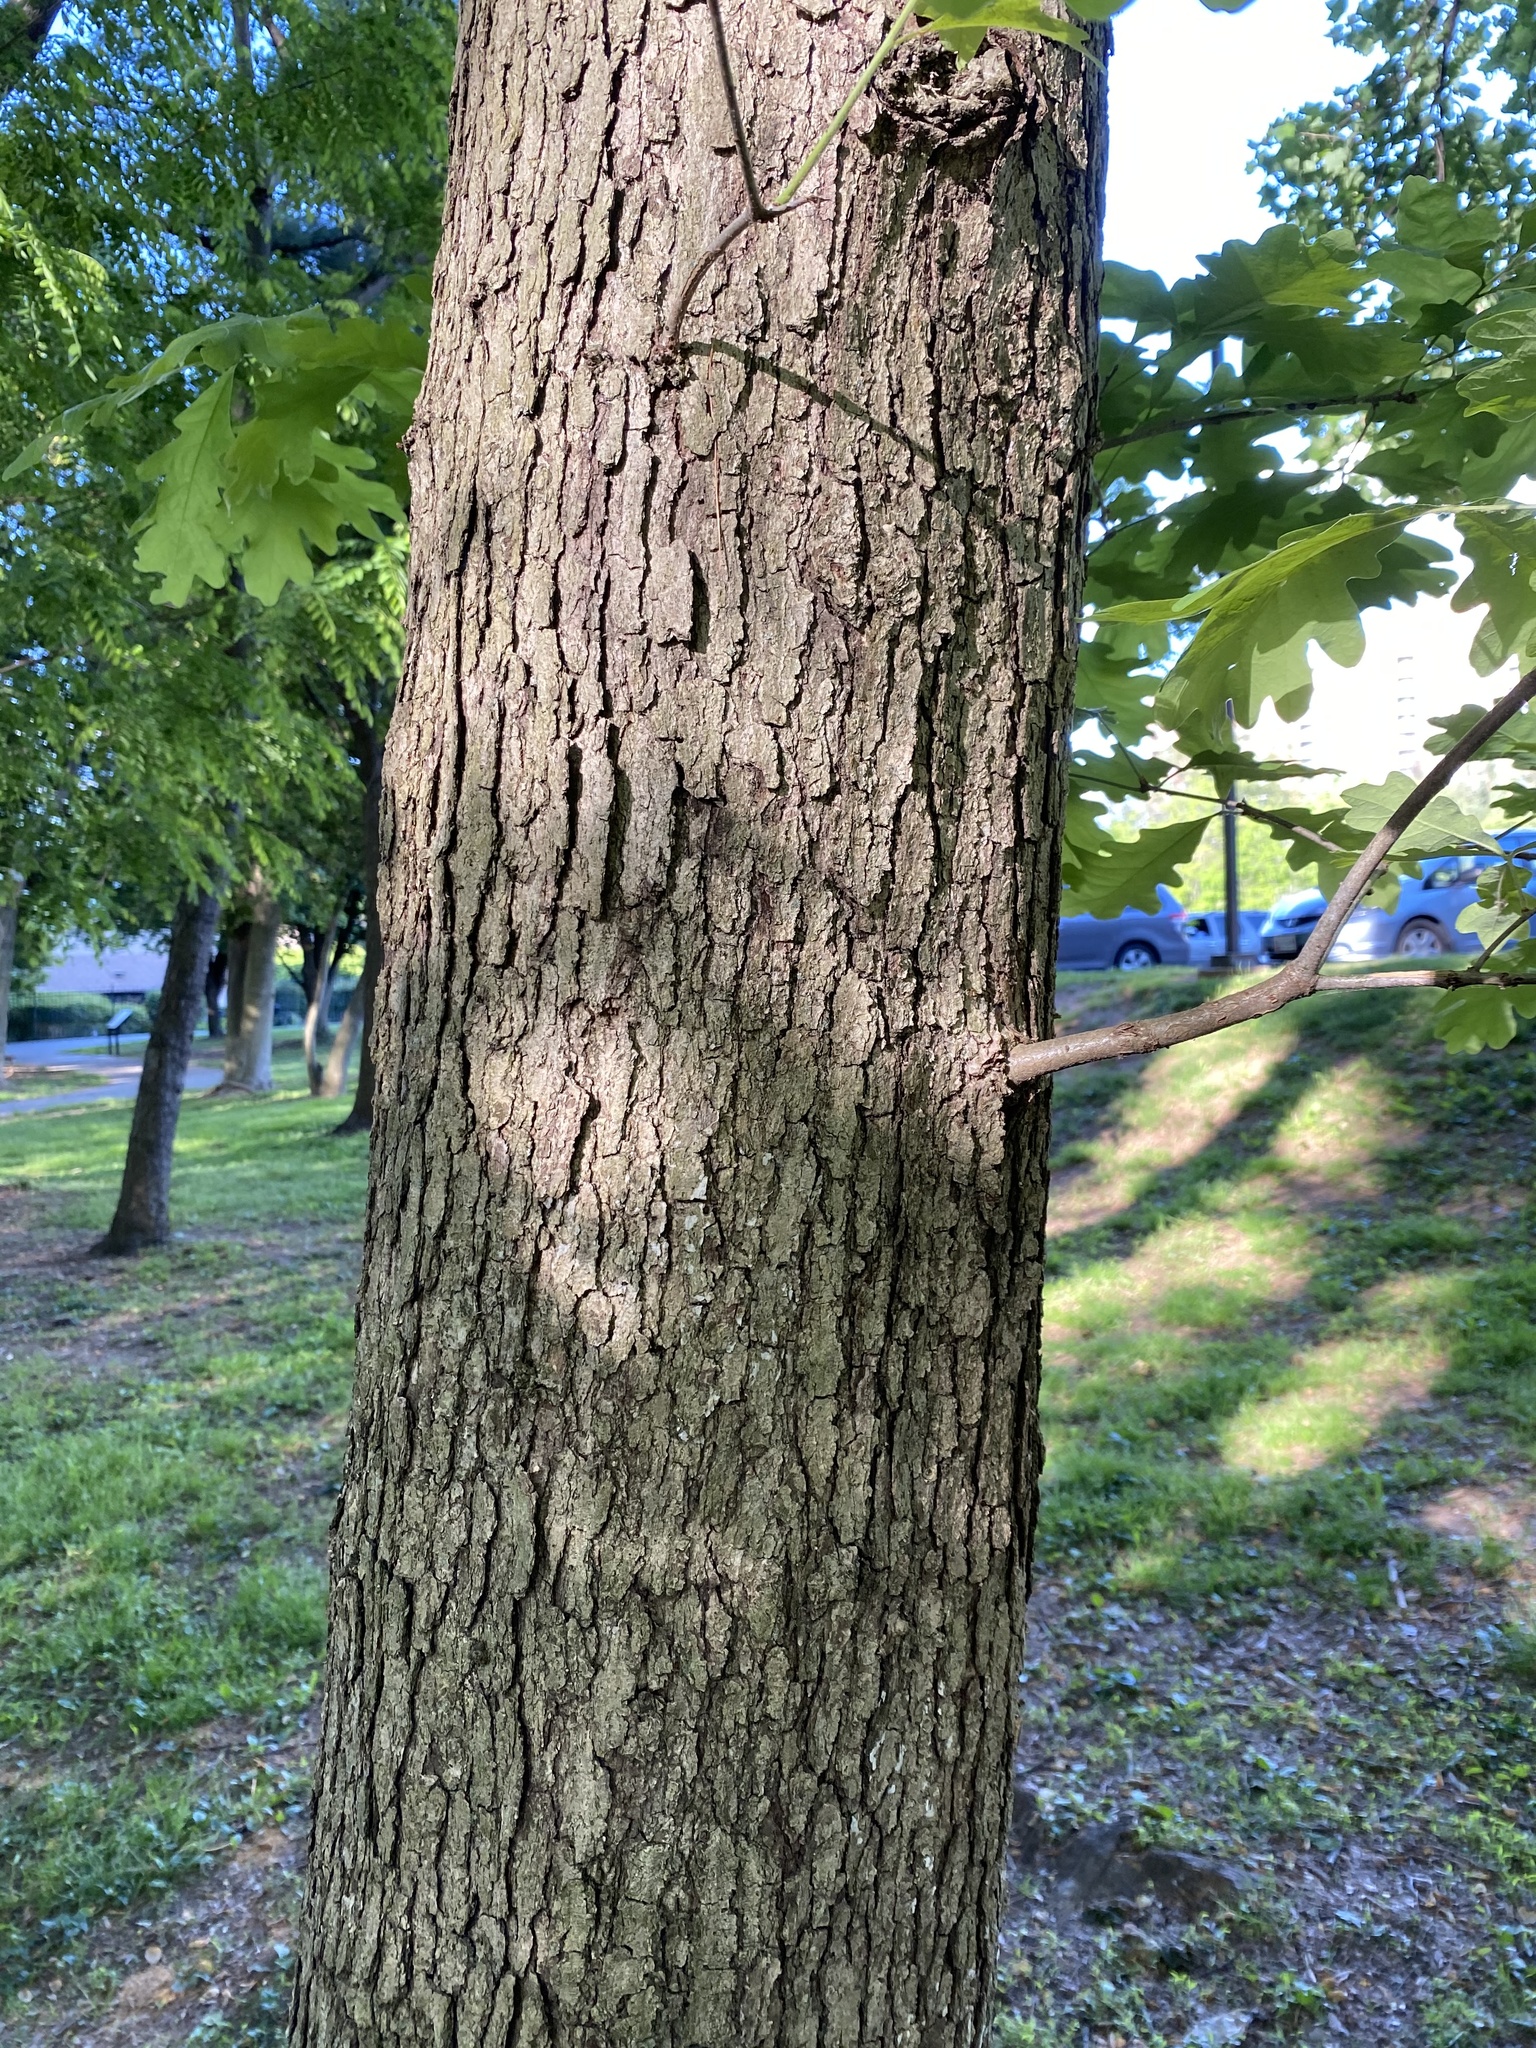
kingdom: Plantae
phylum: Tracheophyta
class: Magnoliopsida
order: Fagales
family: Fagaceae
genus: Quercus
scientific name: Quercus alba
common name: White oak
